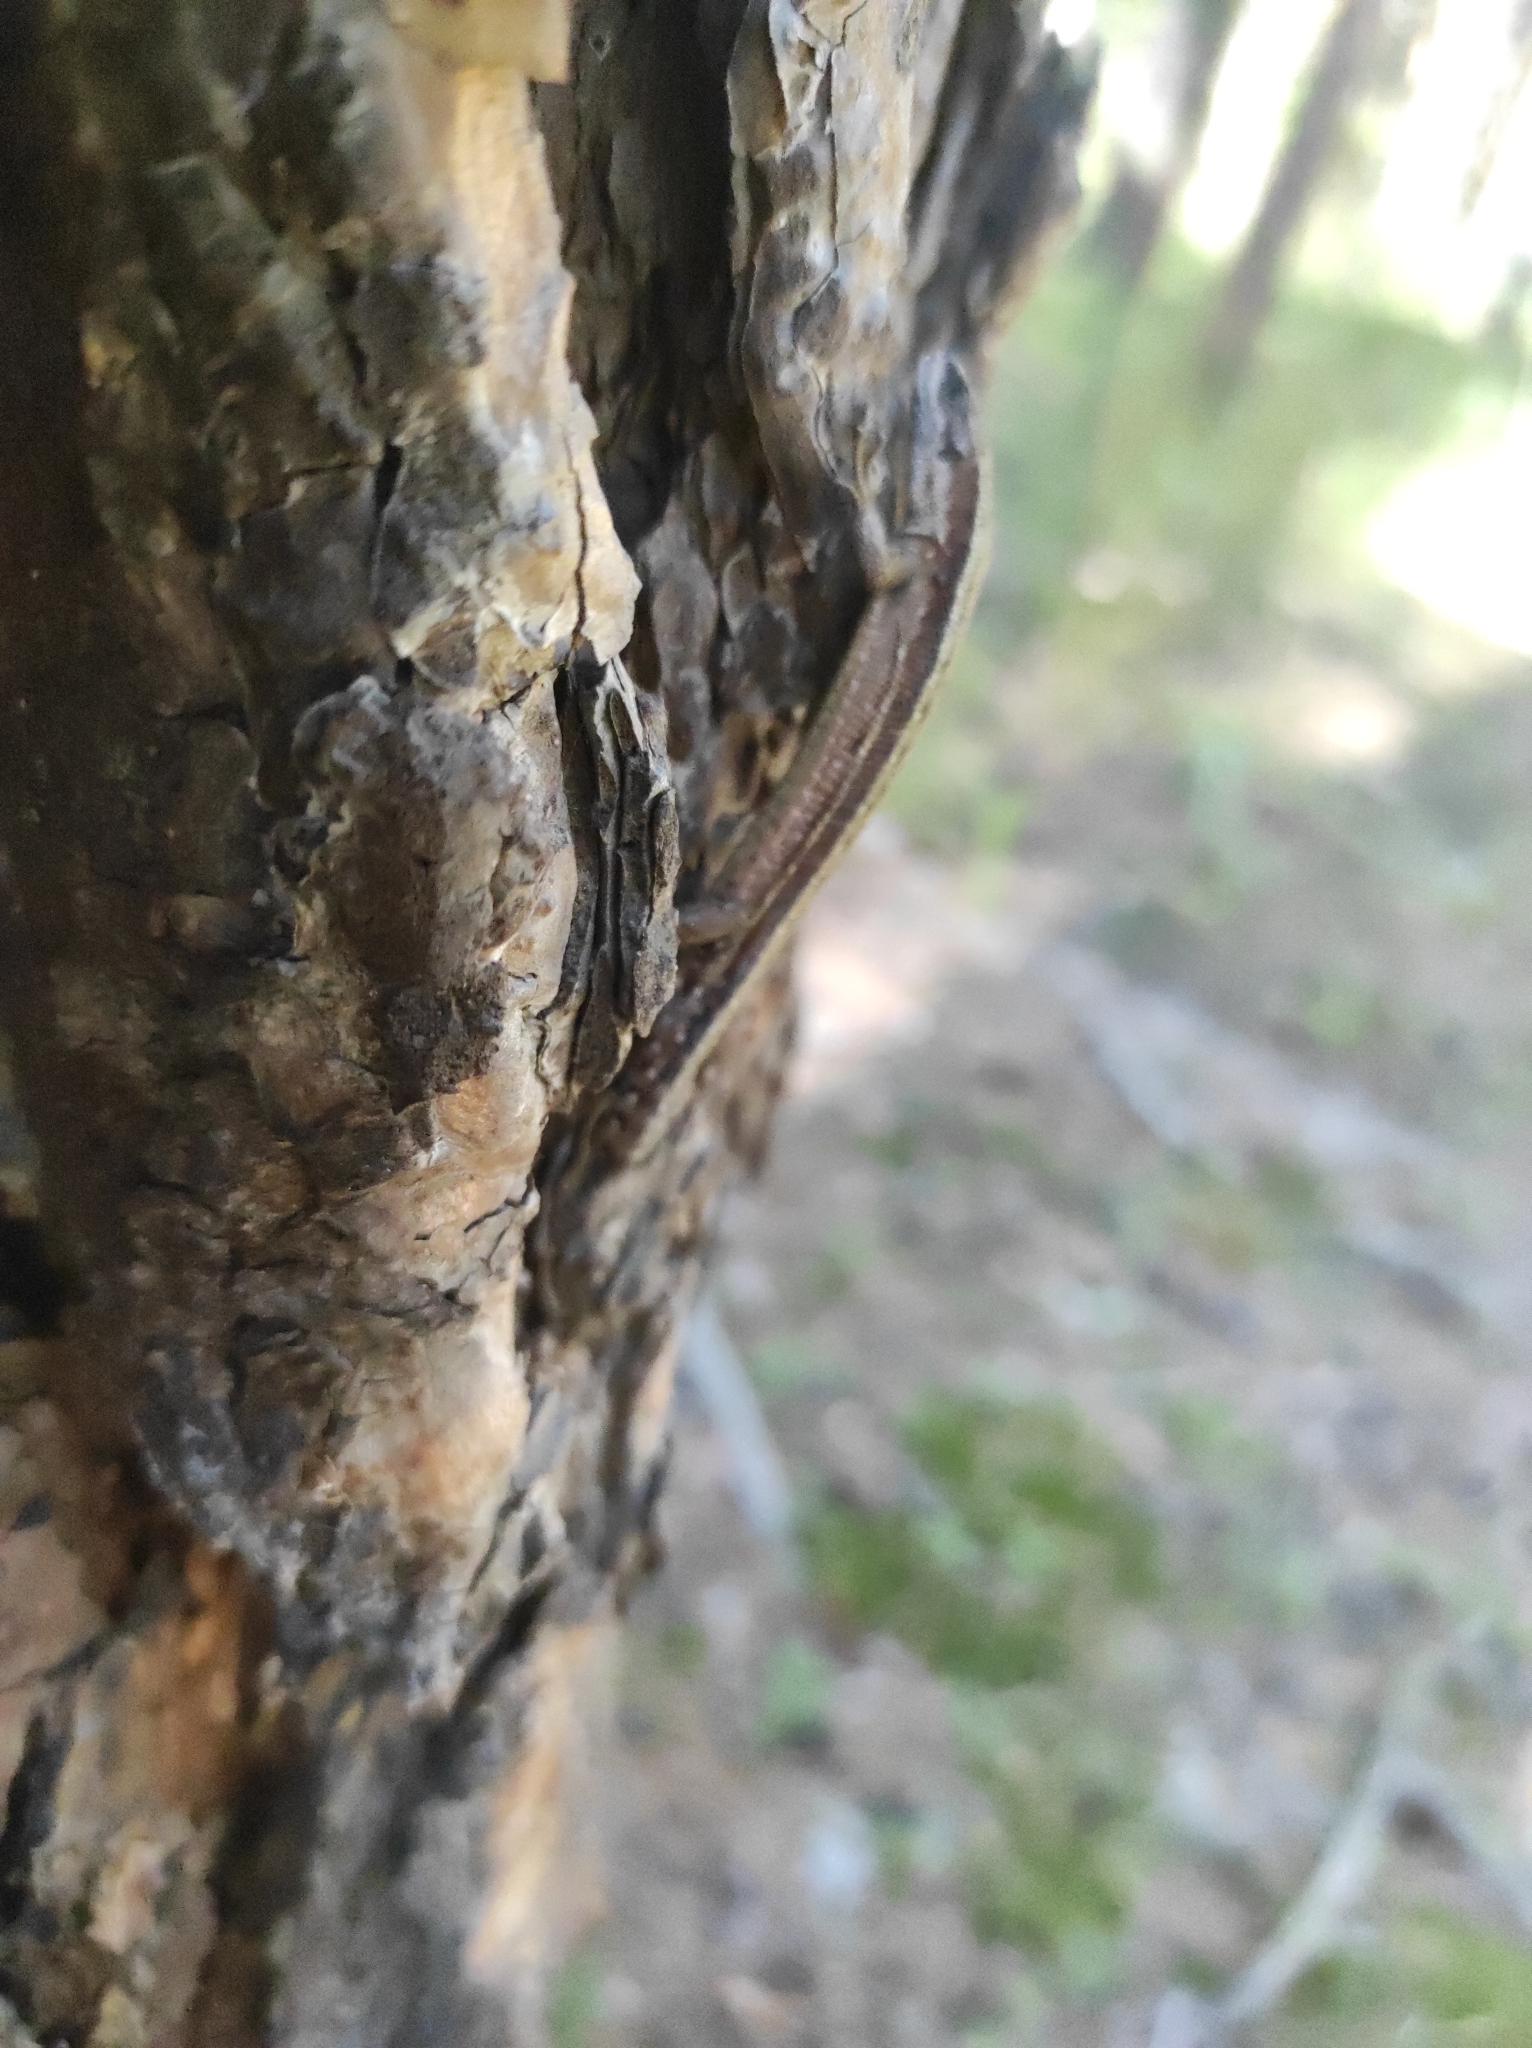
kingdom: Animalia
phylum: Chordata
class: Squamata
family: Lacertidae
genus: Zootoca
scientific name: Zootoca vivipara
